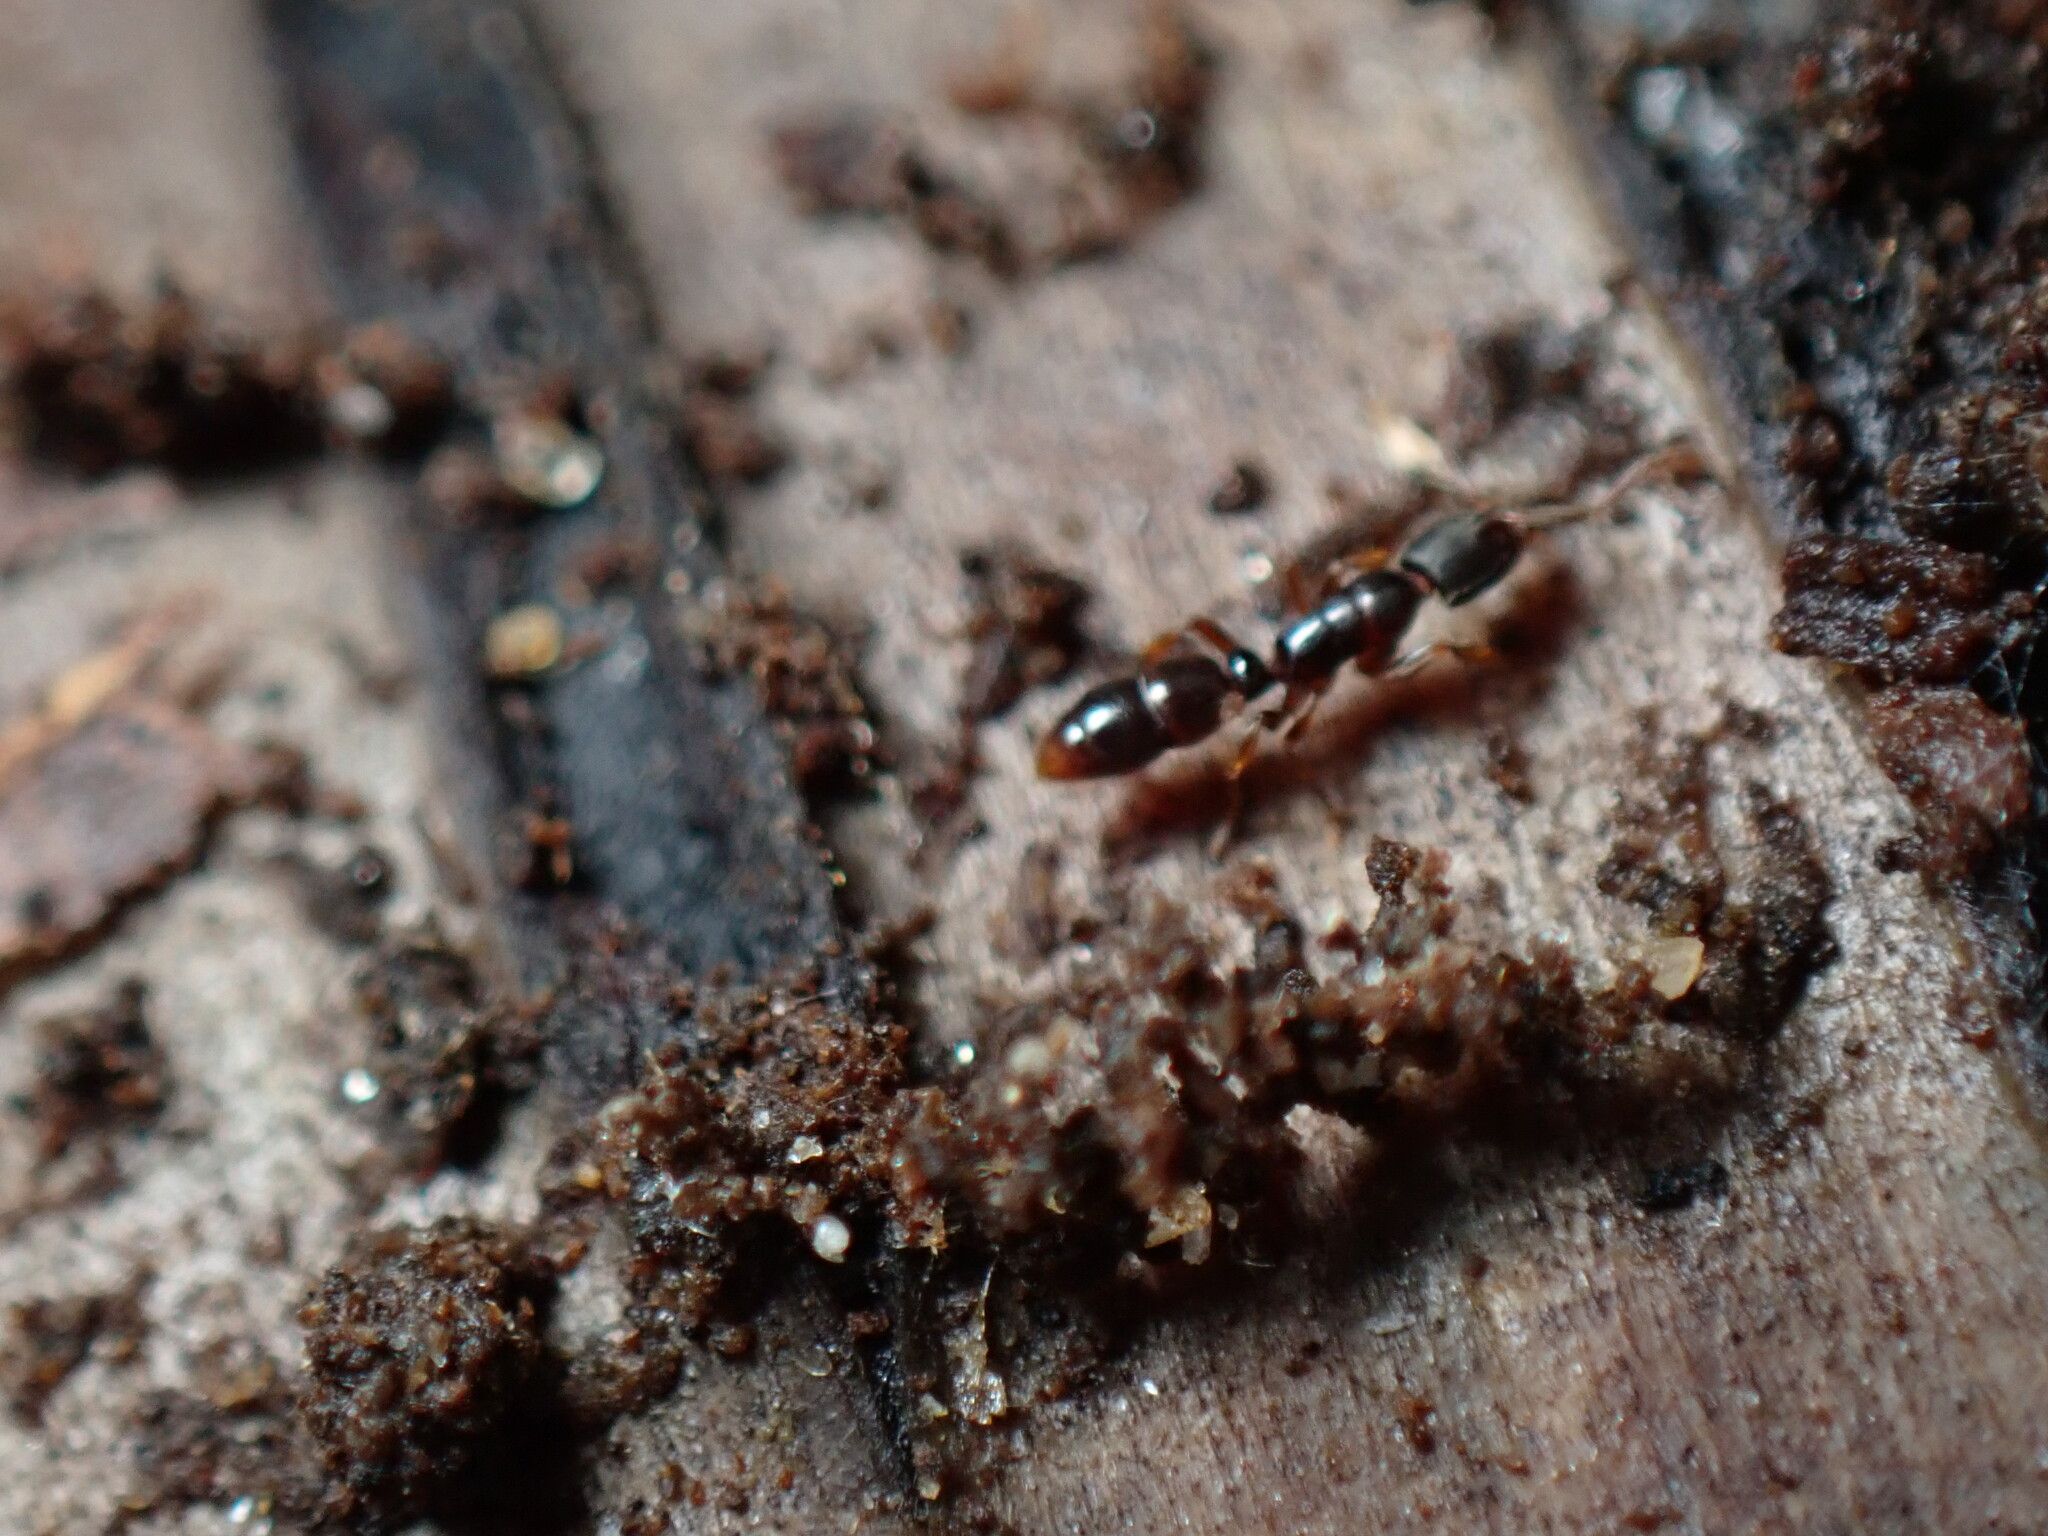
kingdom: Animalia
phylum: Arthropoda
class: Insecta
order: Hymenoptera
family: Formicidae
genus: Ponera
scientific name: Ponera pennsylvanica
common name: Pennsylvania ponera
